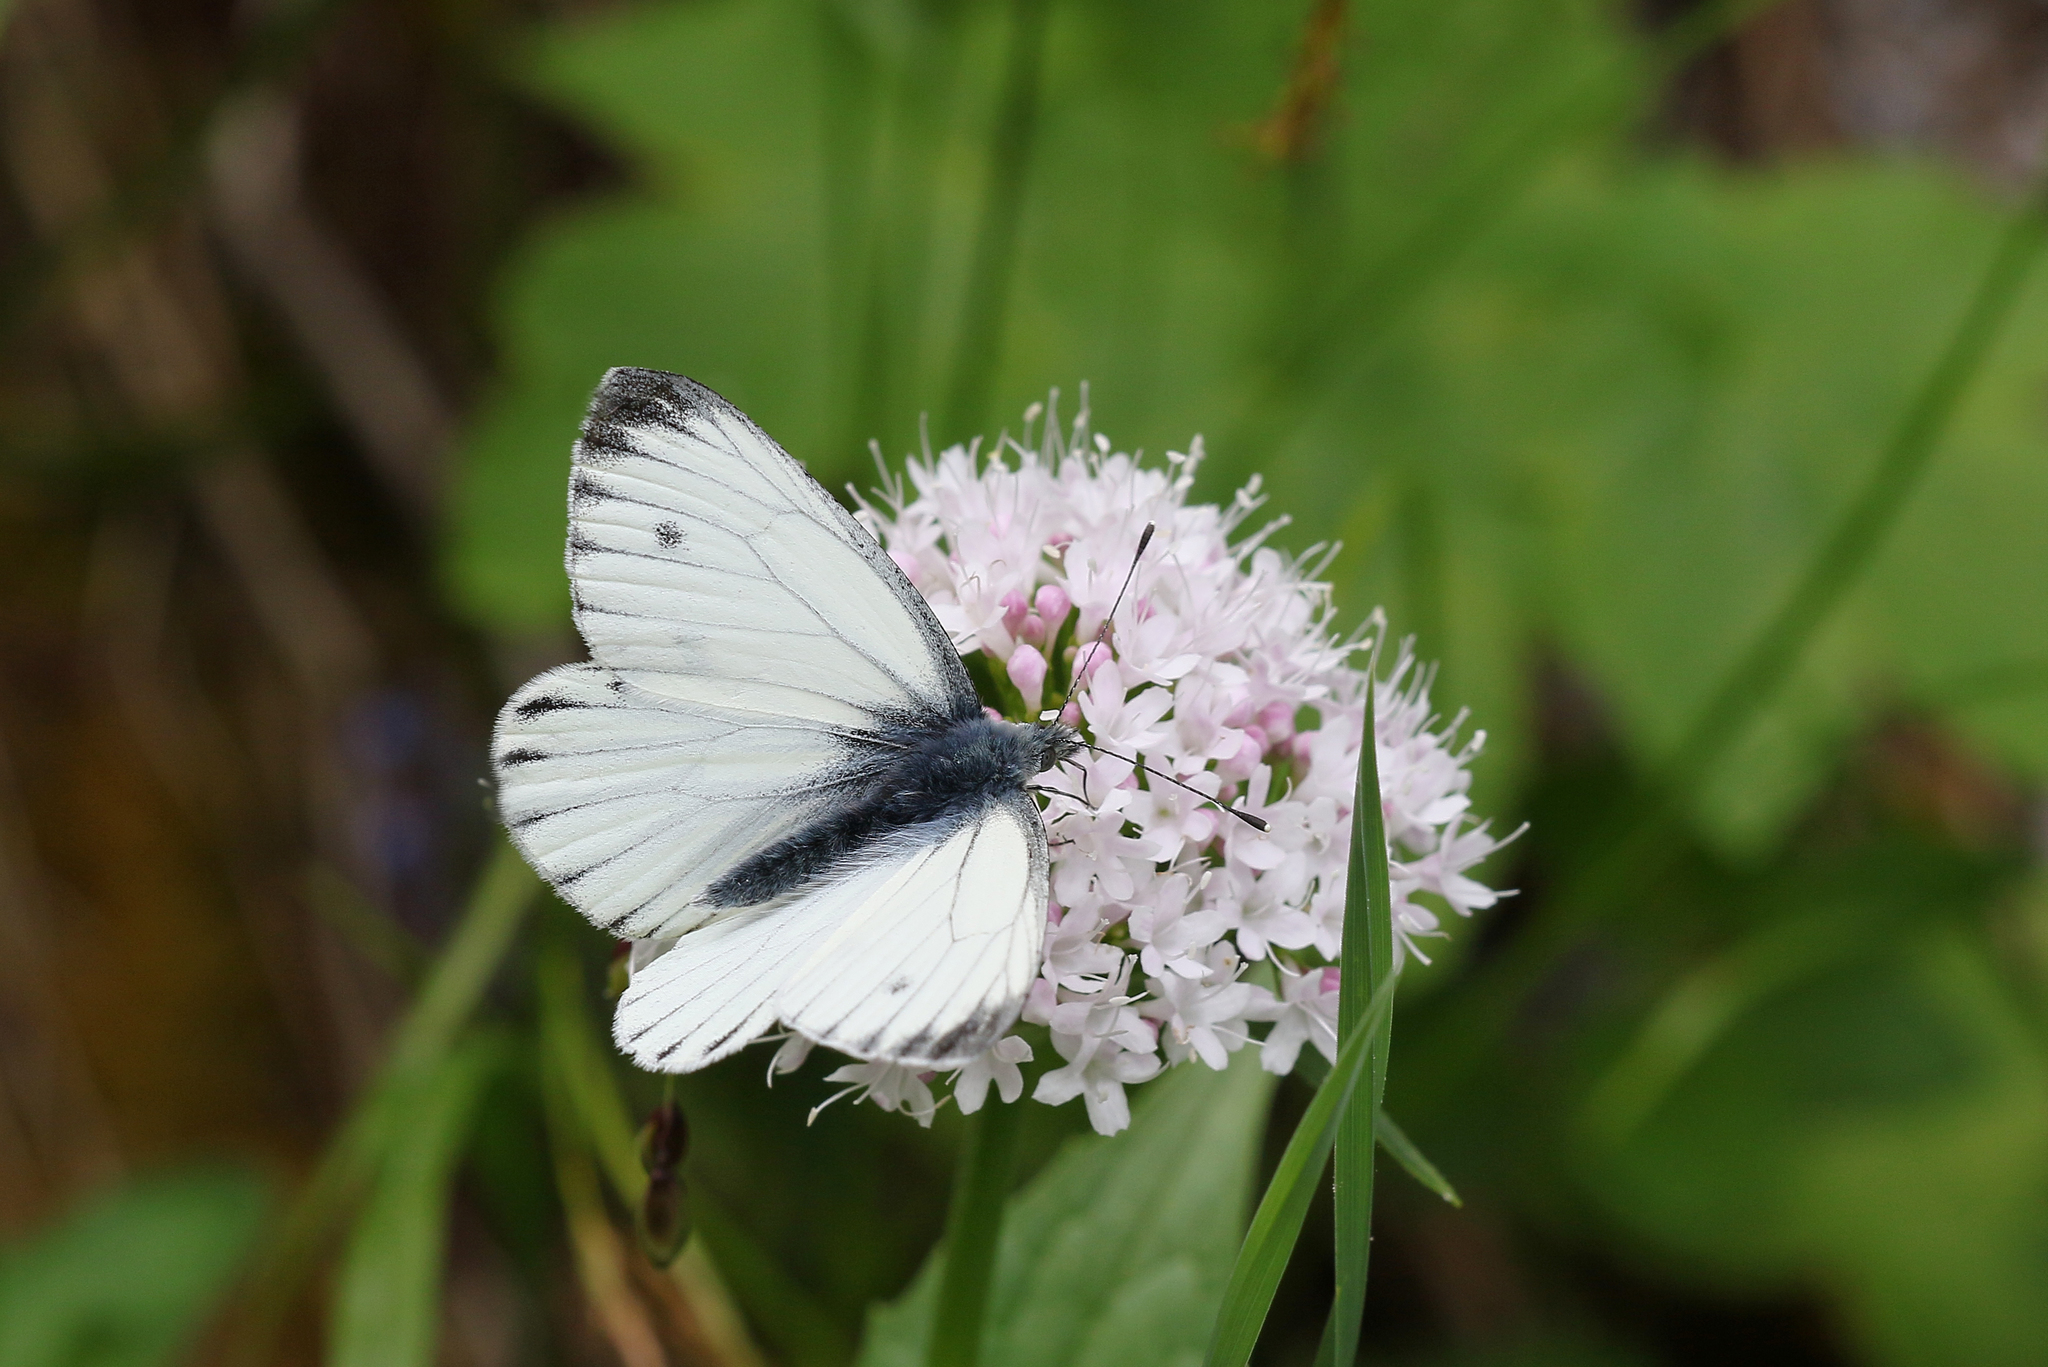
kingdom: Animalia
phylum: Arthropoda
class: Insecta
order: Lepidoptera
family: Pieridae
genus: Pieris
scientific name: Pieris bryoniae
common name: Mountain green-veined white
